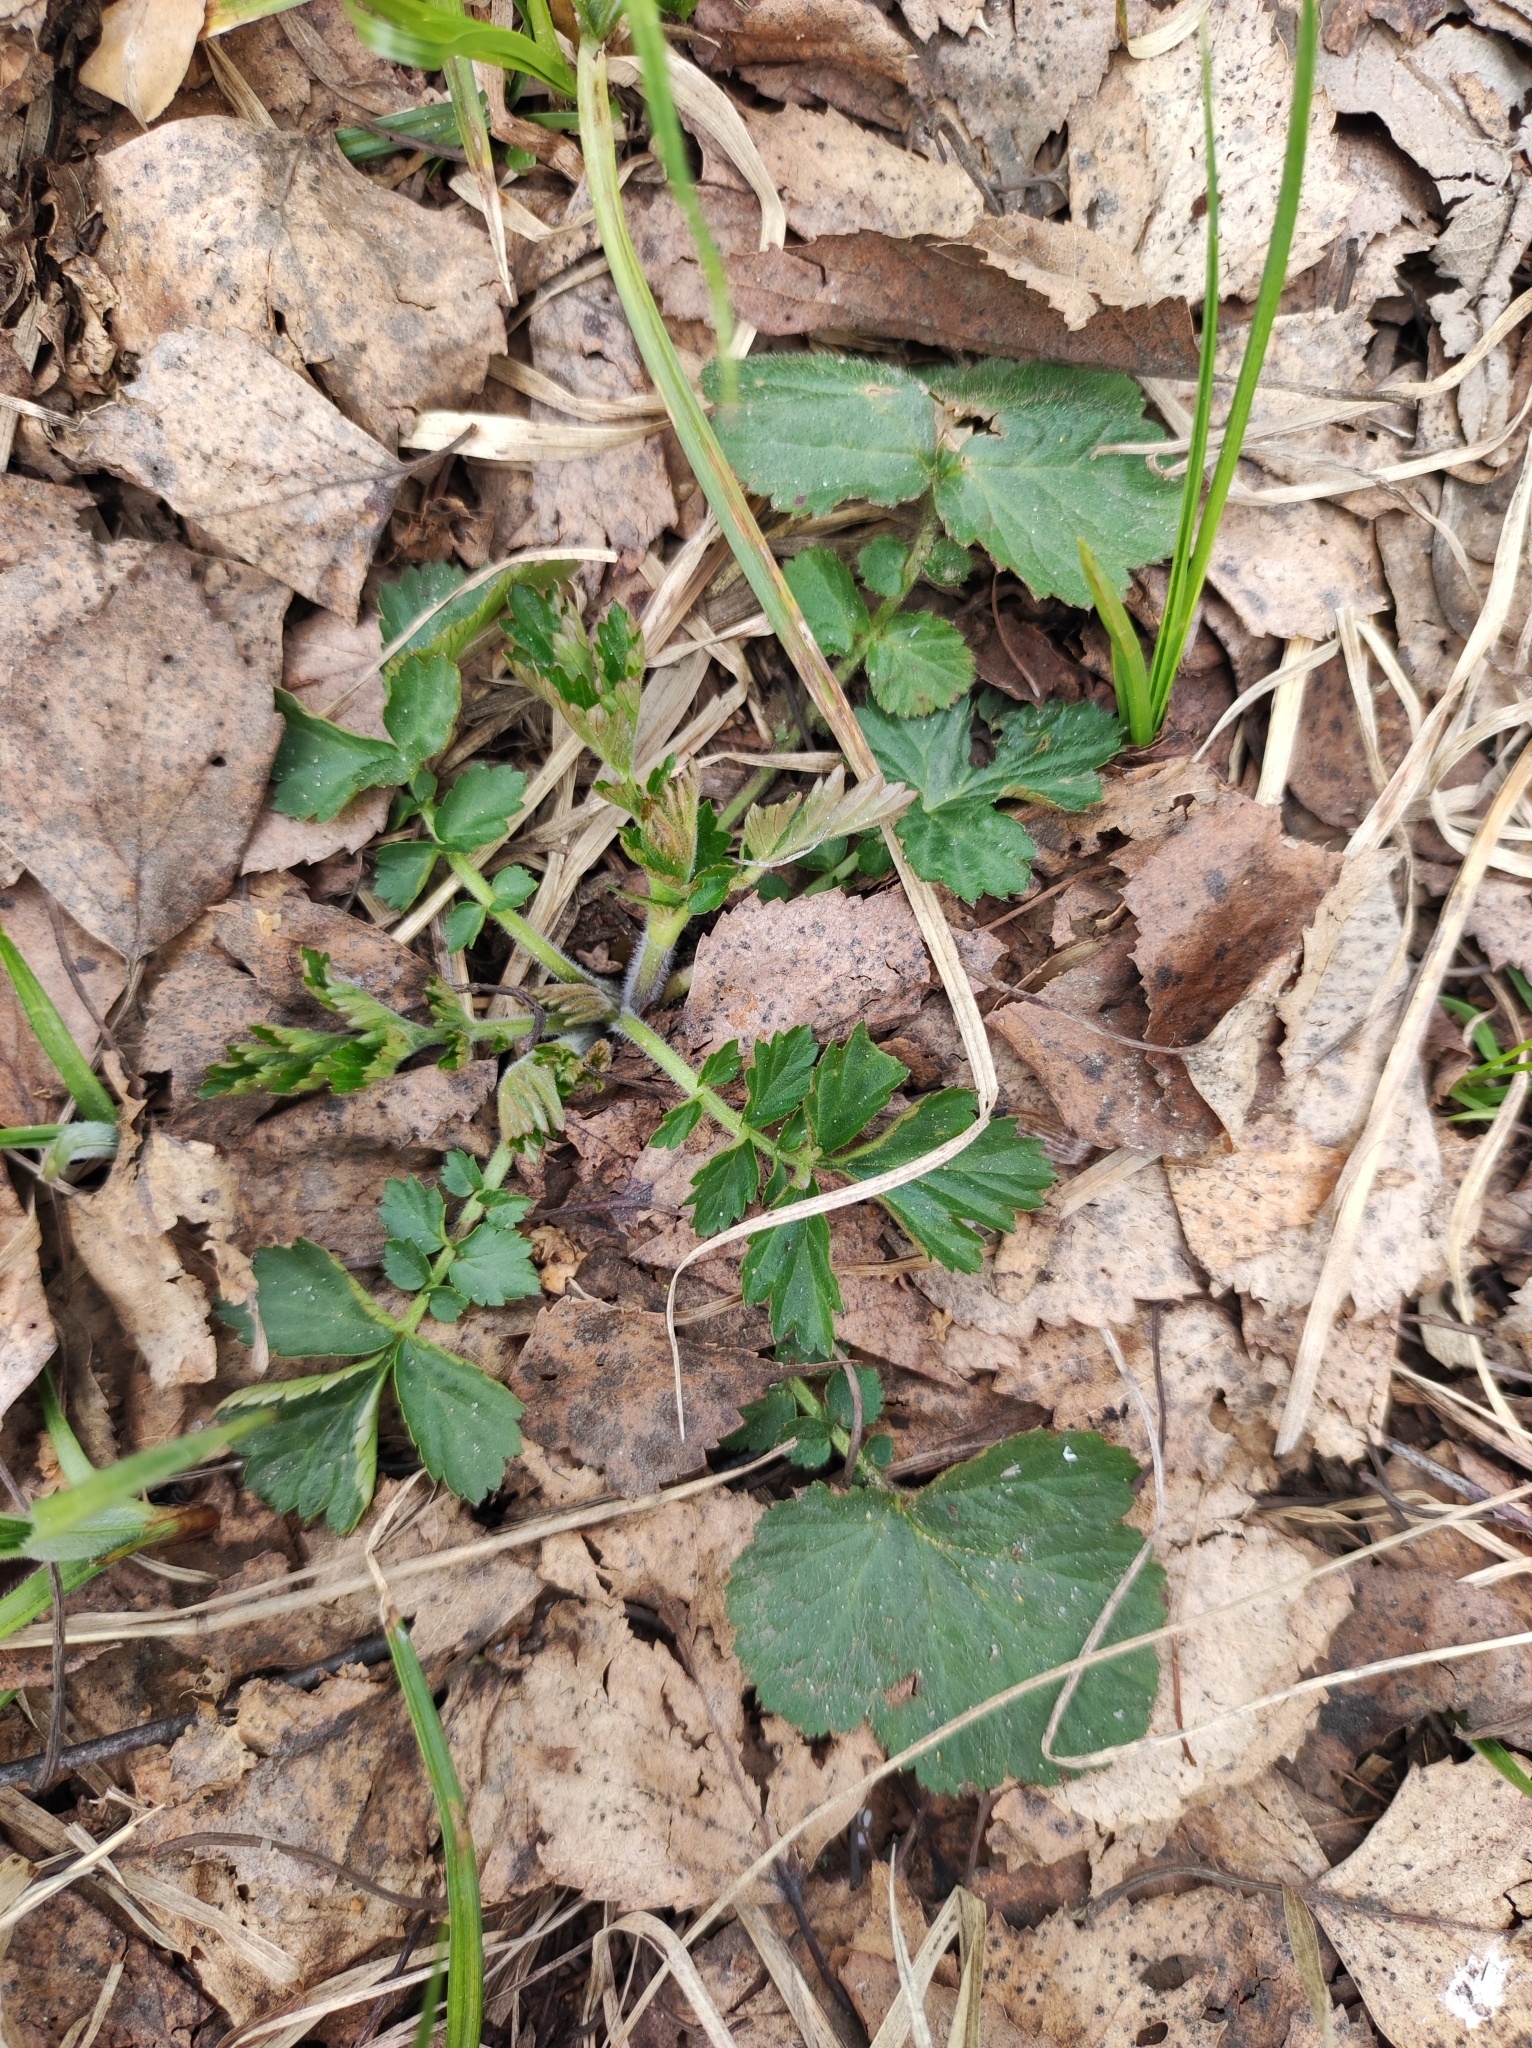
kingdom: Plantae
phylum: Tracheophyta
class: Magnoliopsida
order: Rosales
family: Rosaceae
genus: Geum
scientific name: Geum urbanum
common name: Wood avens
